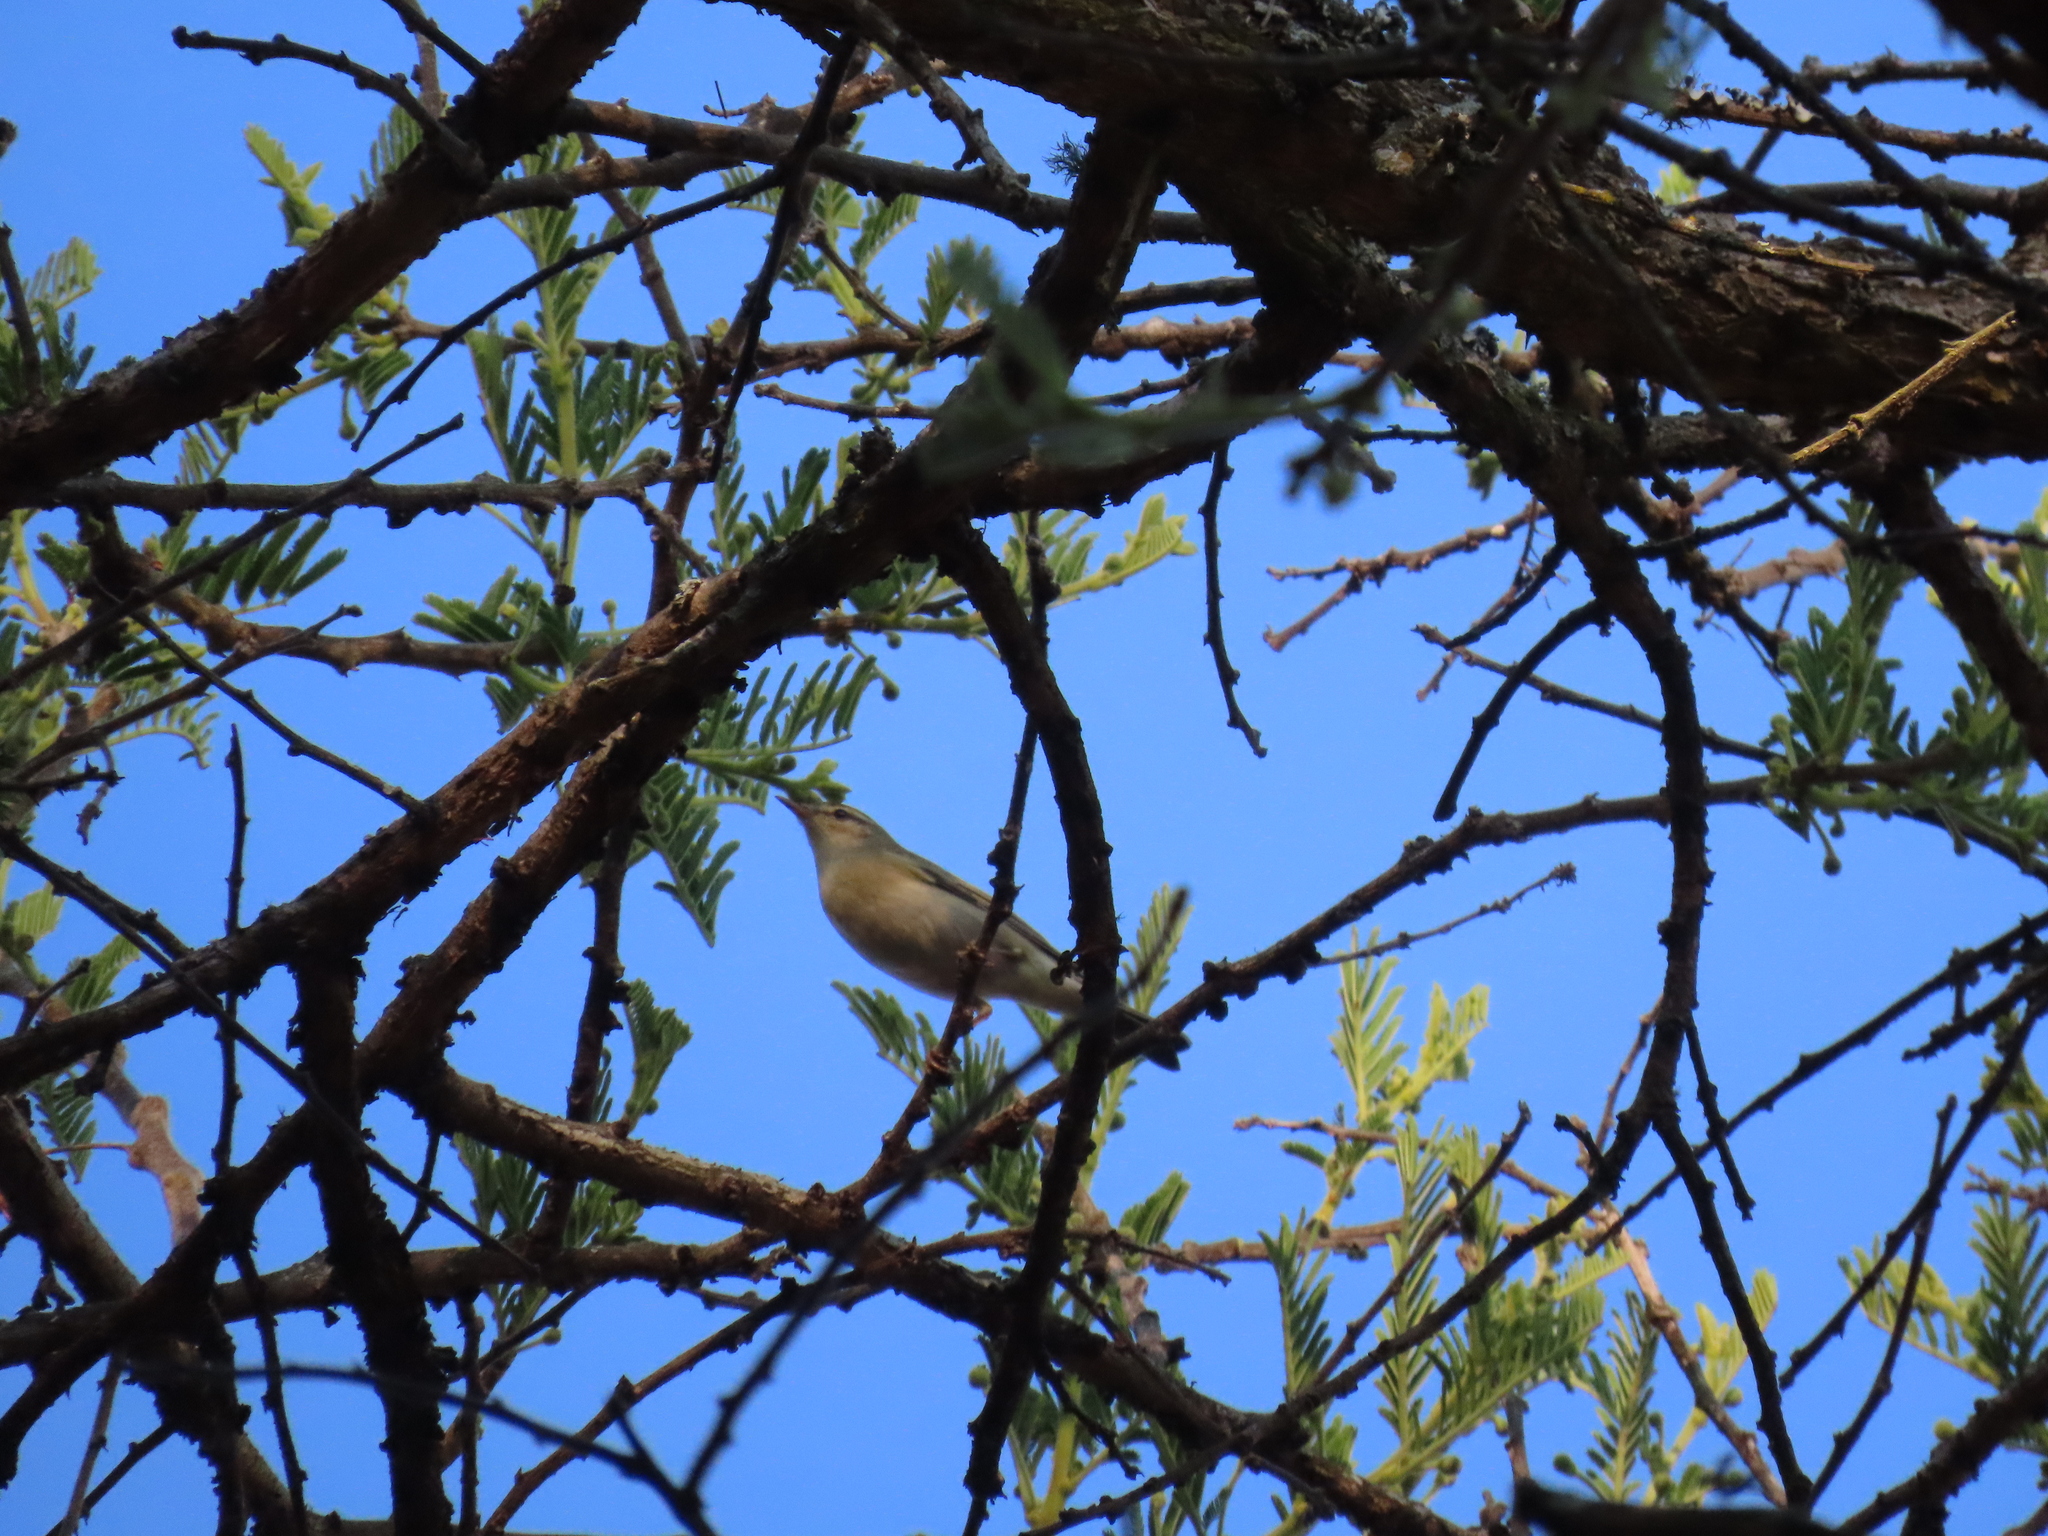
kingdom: Animalia
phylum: Chordata
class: Aves
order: Passeriformes
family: Phylloscopidae
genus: Phylloscopus
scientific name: Phylloscopus trochilus
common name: Willow warbler
